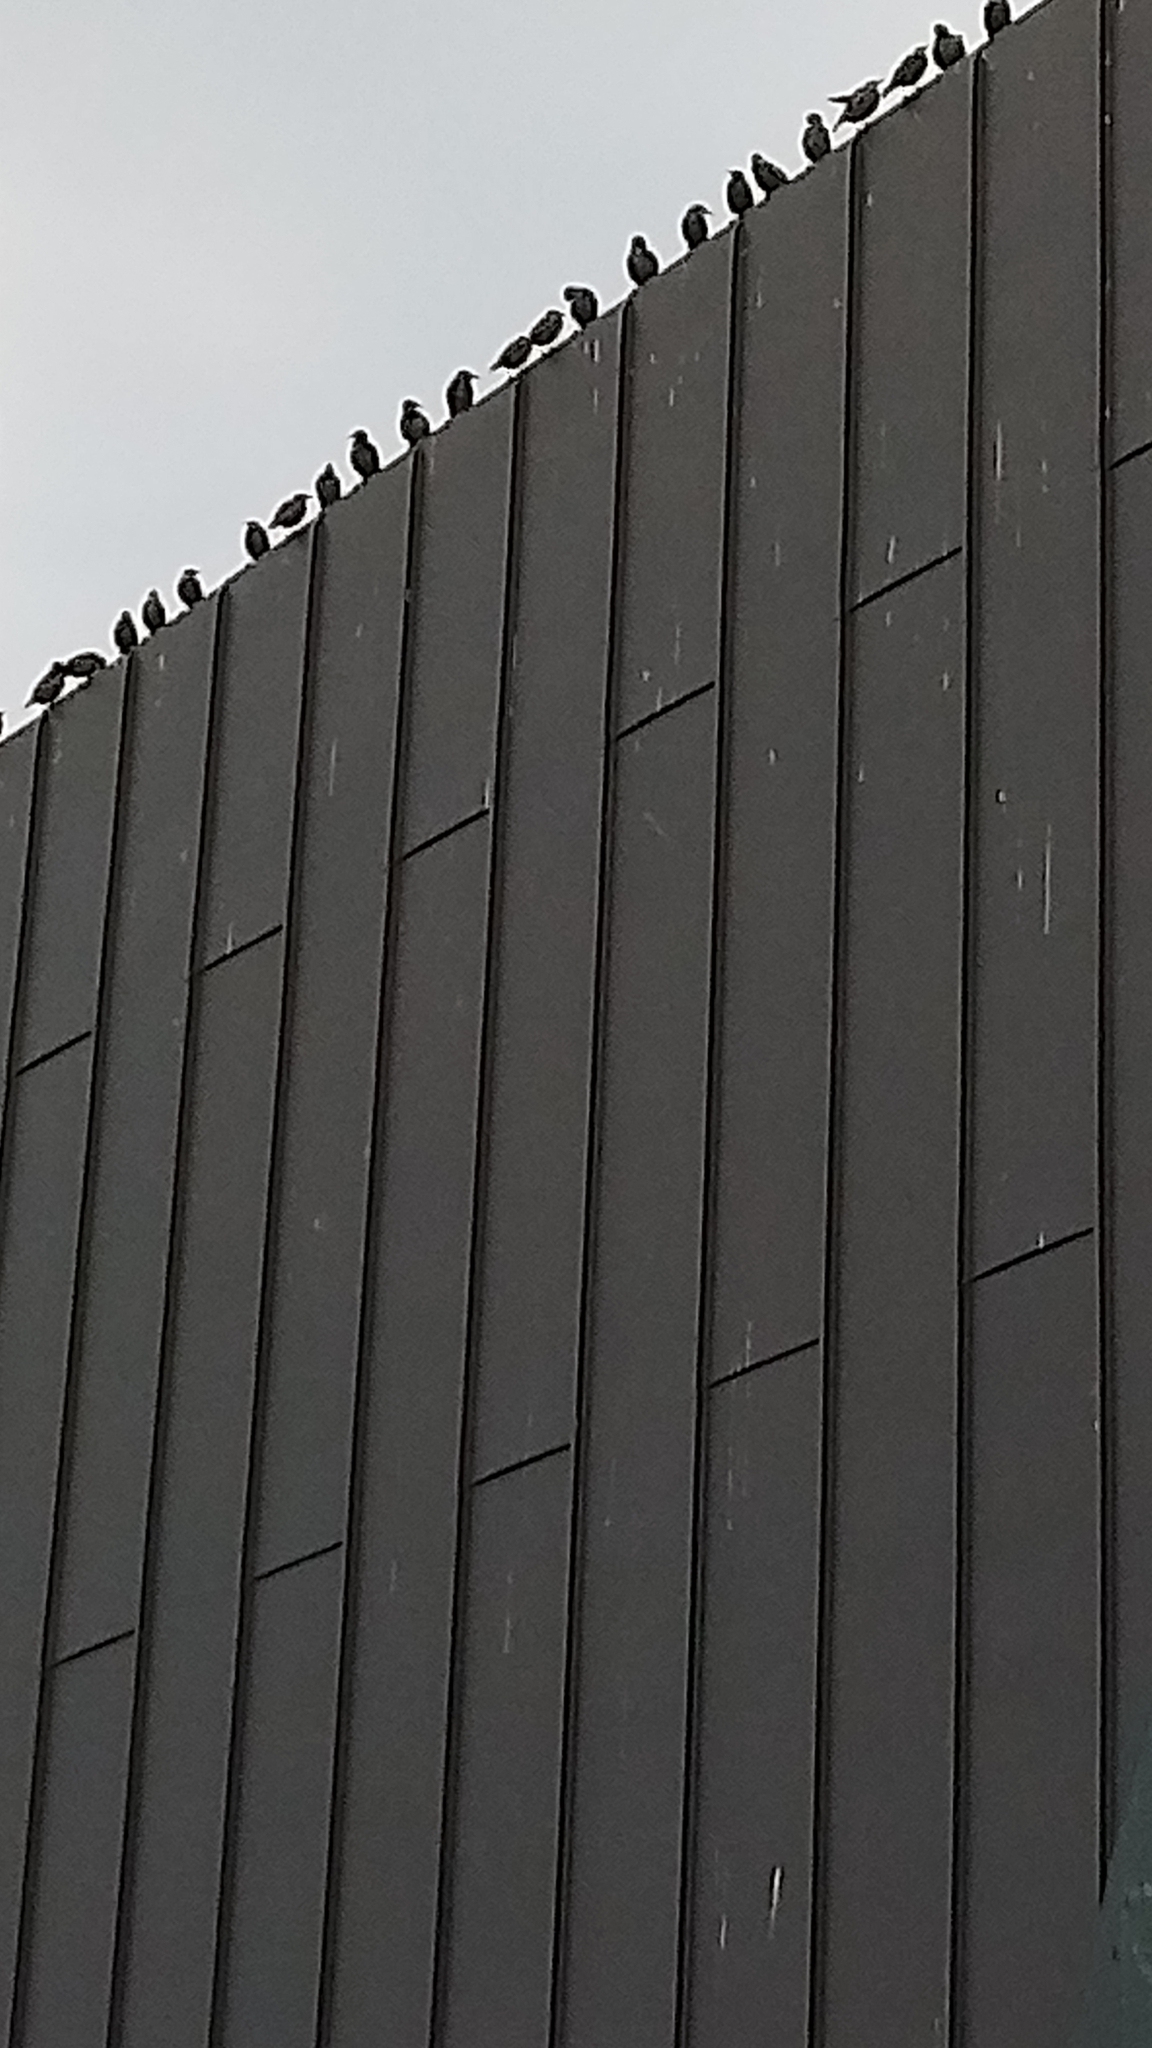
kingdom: Animalia
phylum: Chordata
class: Aves
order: Passeriformes
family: Sturnidae
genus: Sturnus
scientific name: Sturnus vulgaris
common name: Common starling
